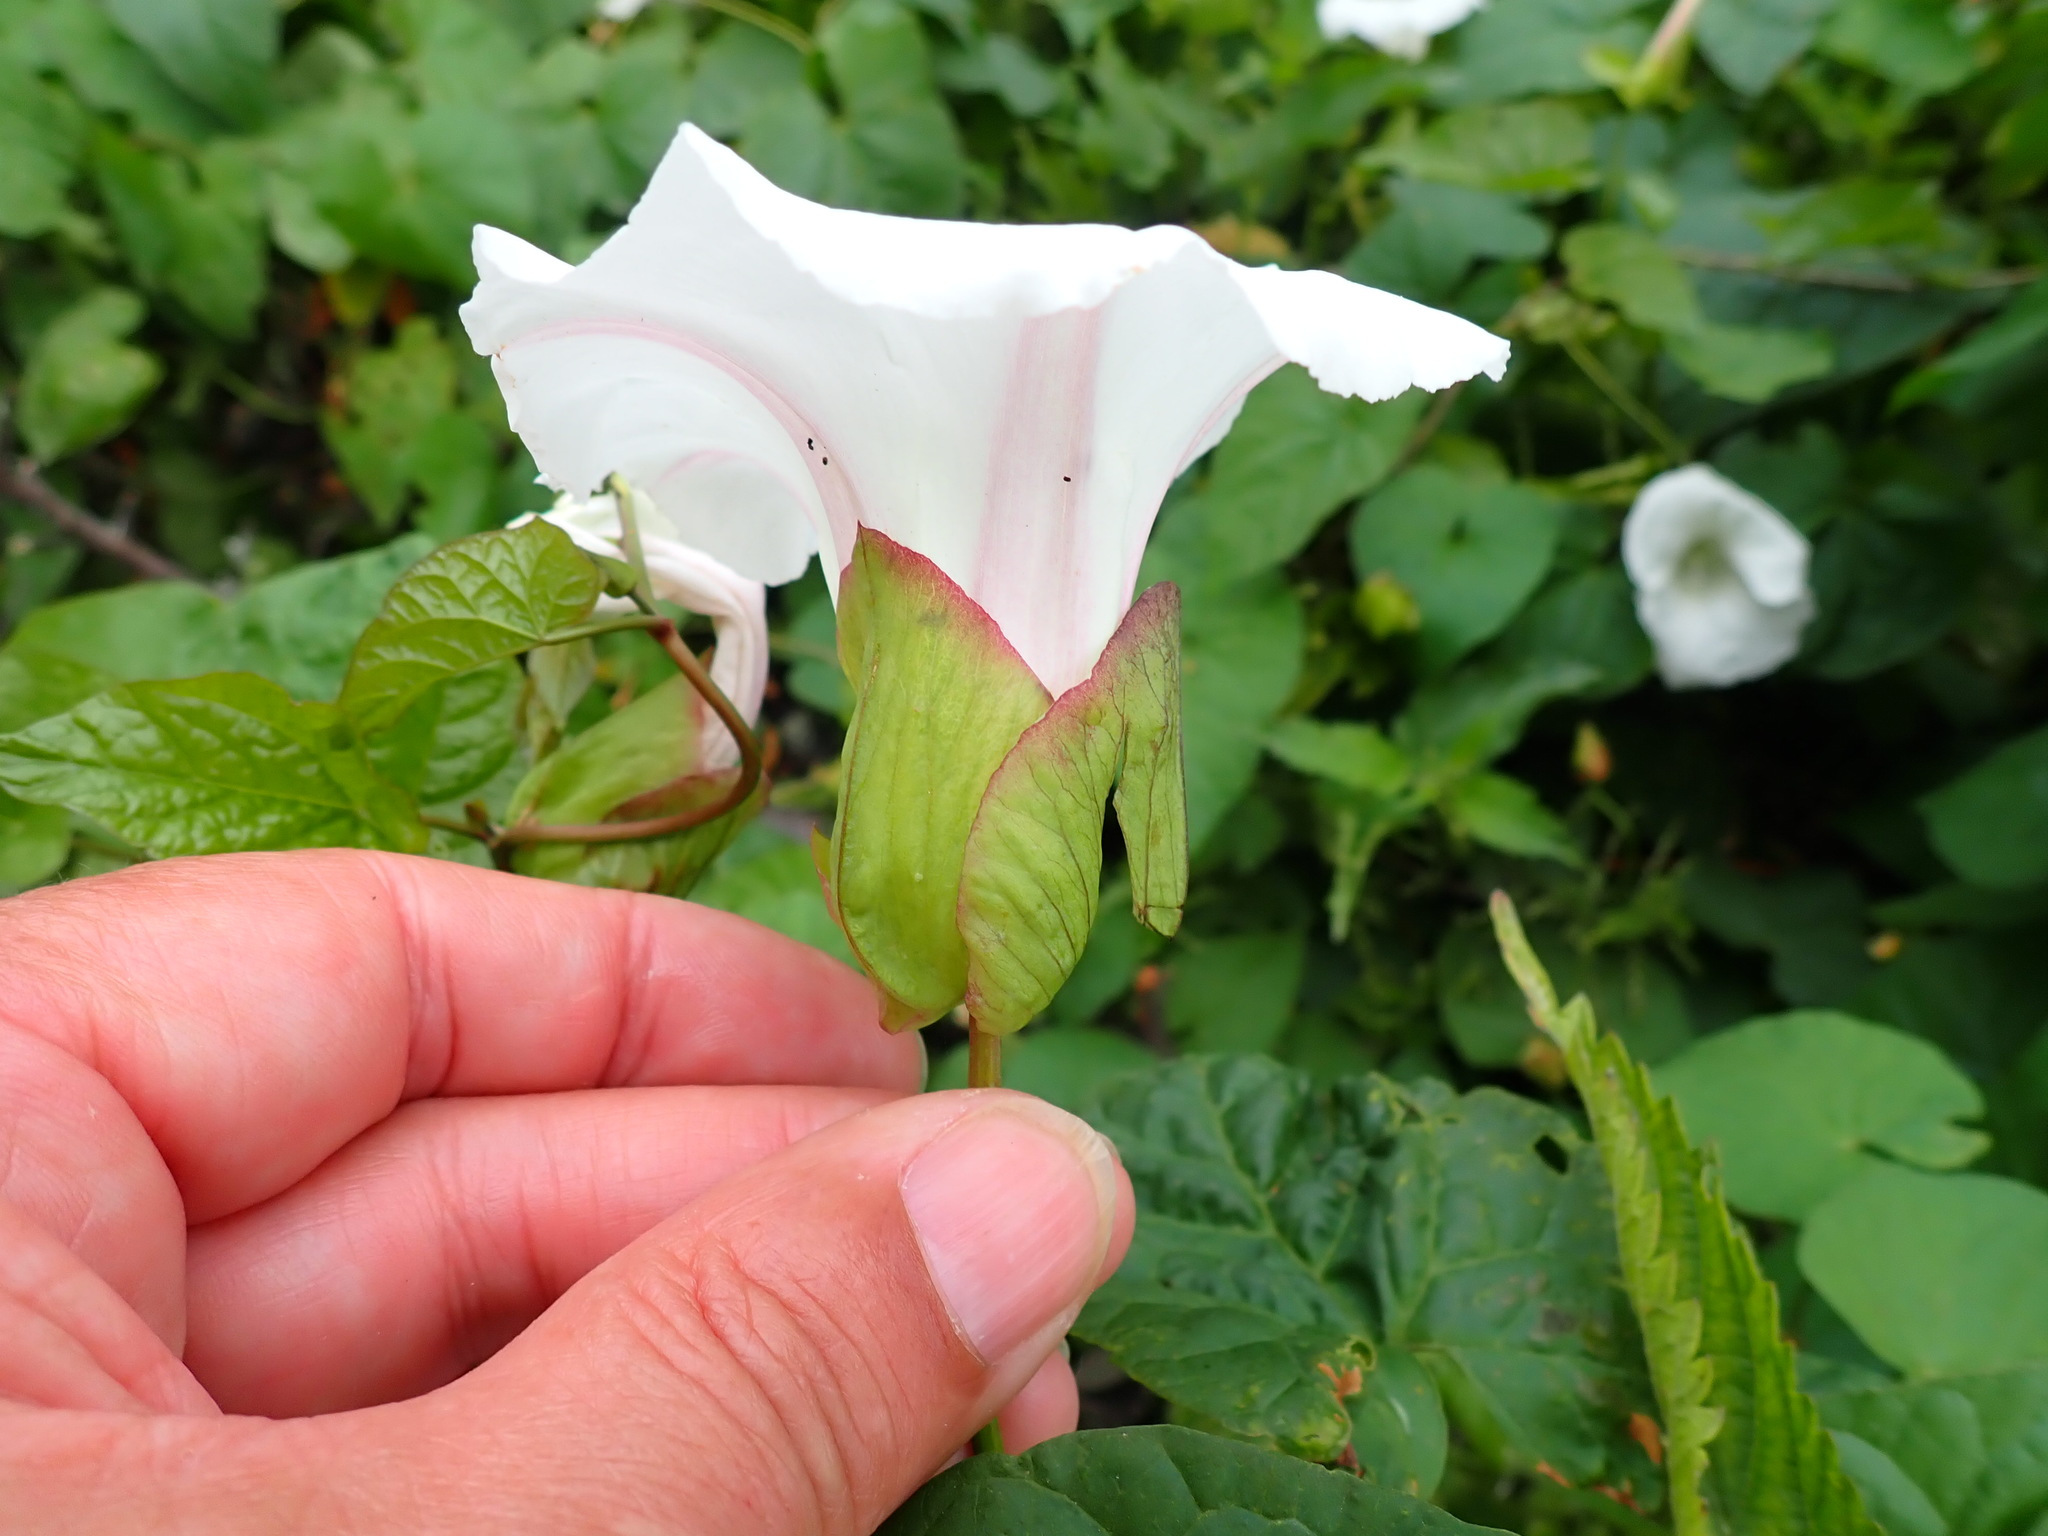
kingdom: Plantae
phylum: Tracheophyta
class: Magnoliopsida
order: Solanales
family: Convolvulaceae
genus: Calystegia
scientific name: Calystegia silvatica
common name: Large bindweed
